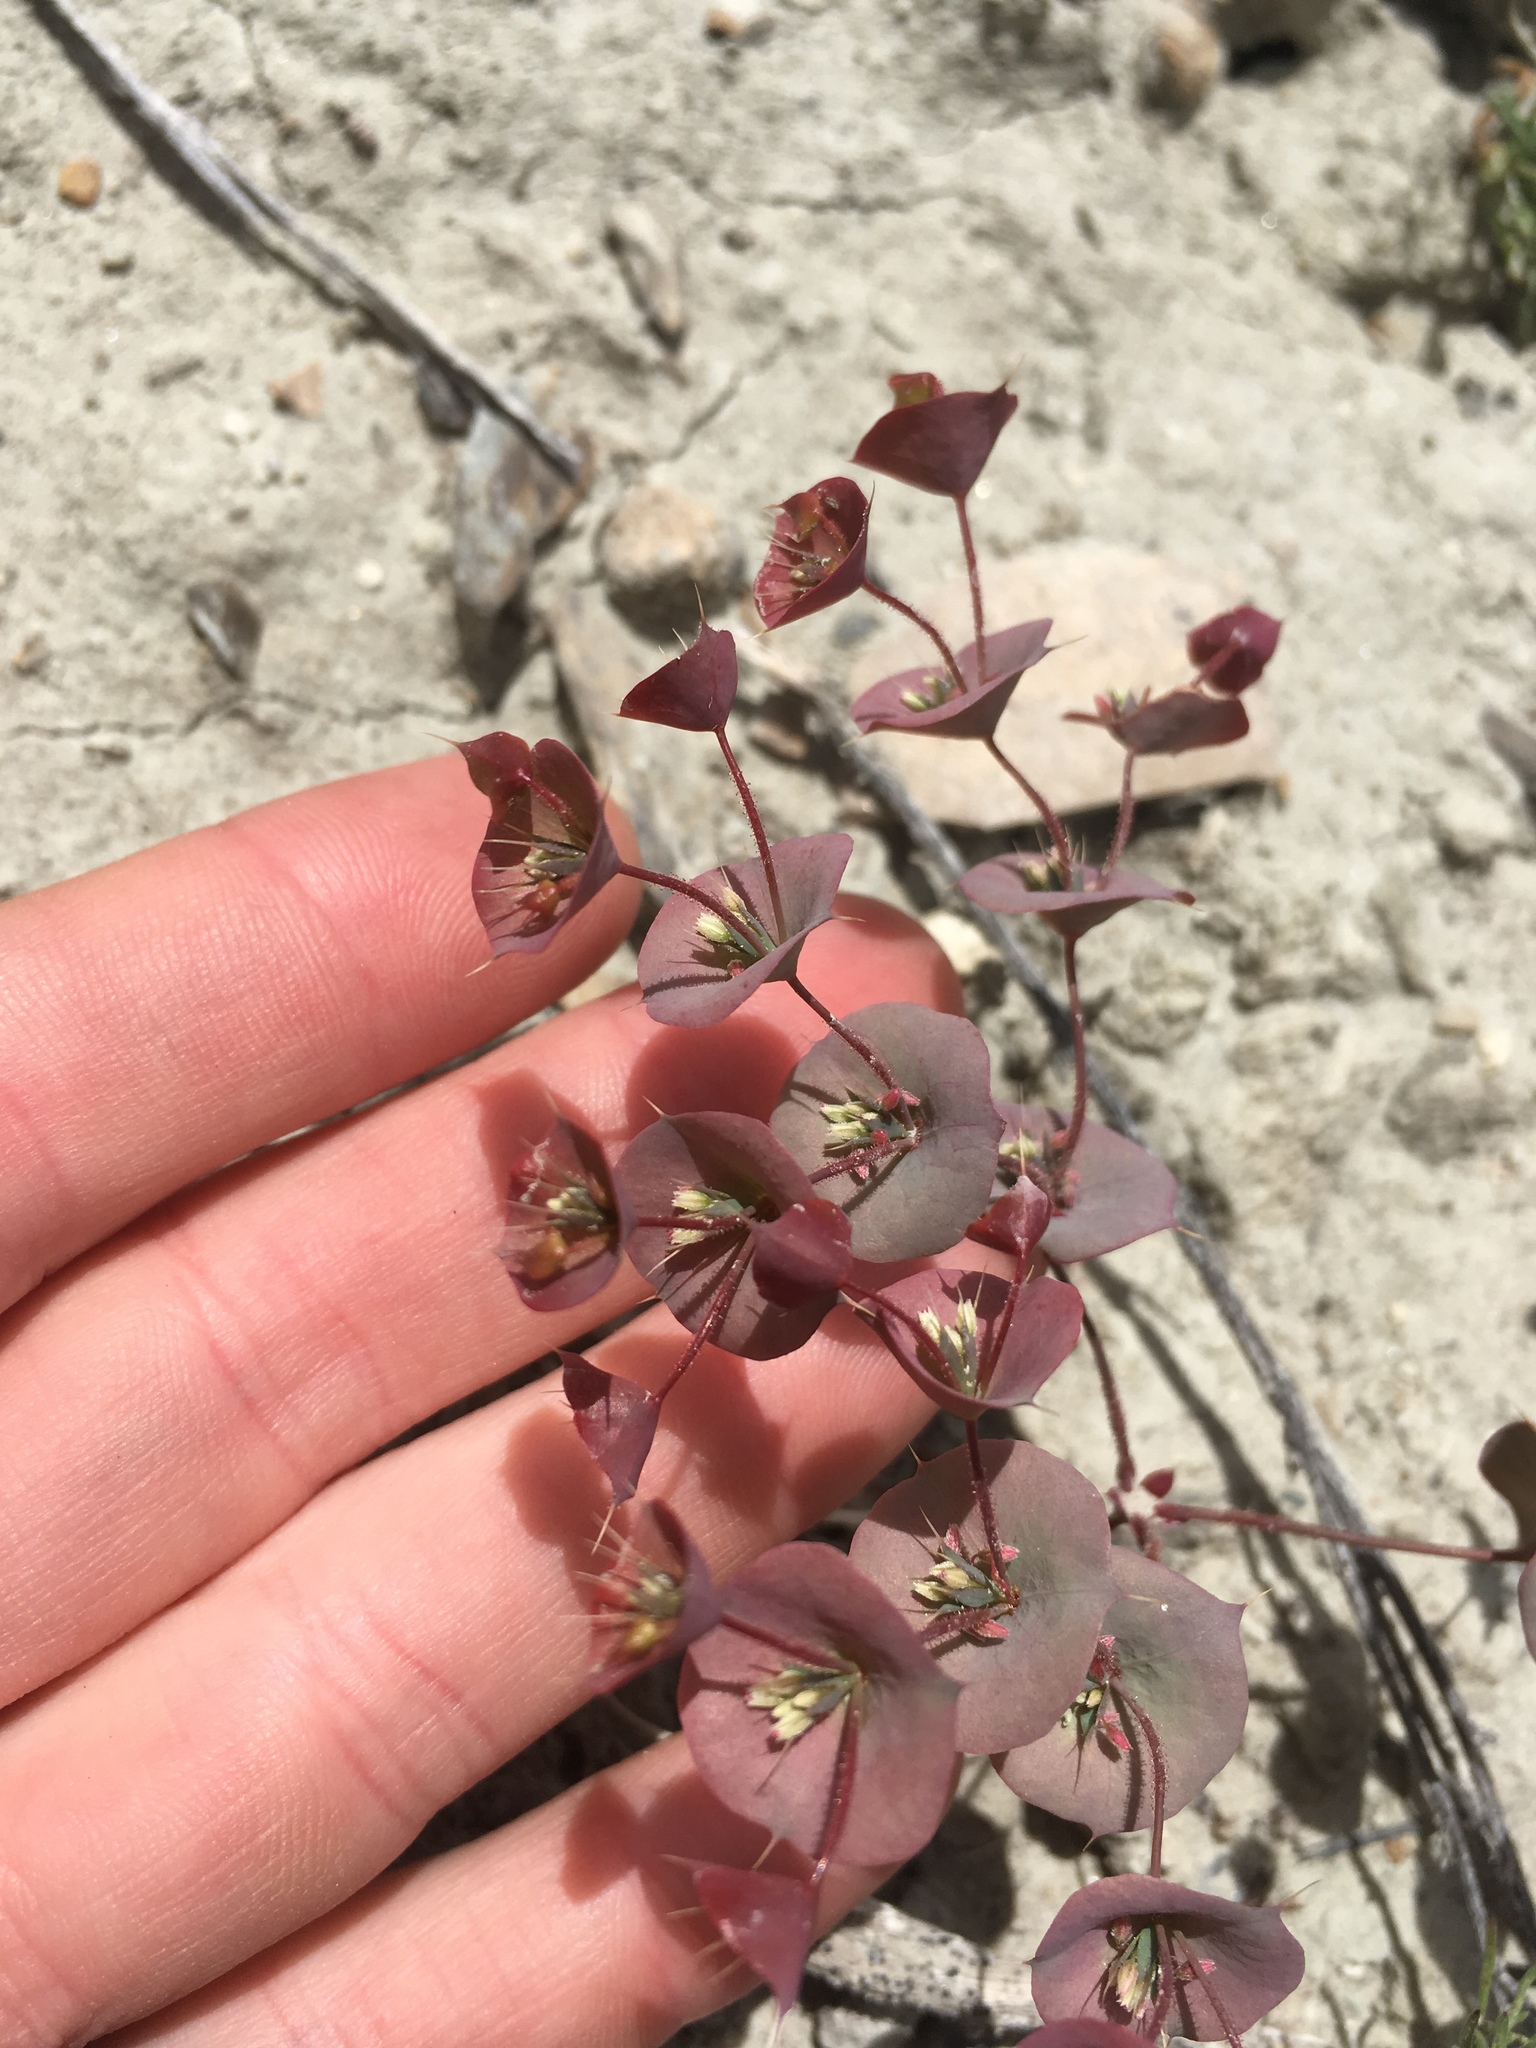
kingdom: Plantae
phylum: Tracheophyta
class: Magnoliopsida
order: Caryophyllales
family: Polygonaceae
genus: Oxytheca
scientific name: Oxytheca perfoliata
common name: Round-leaf puncturebract
